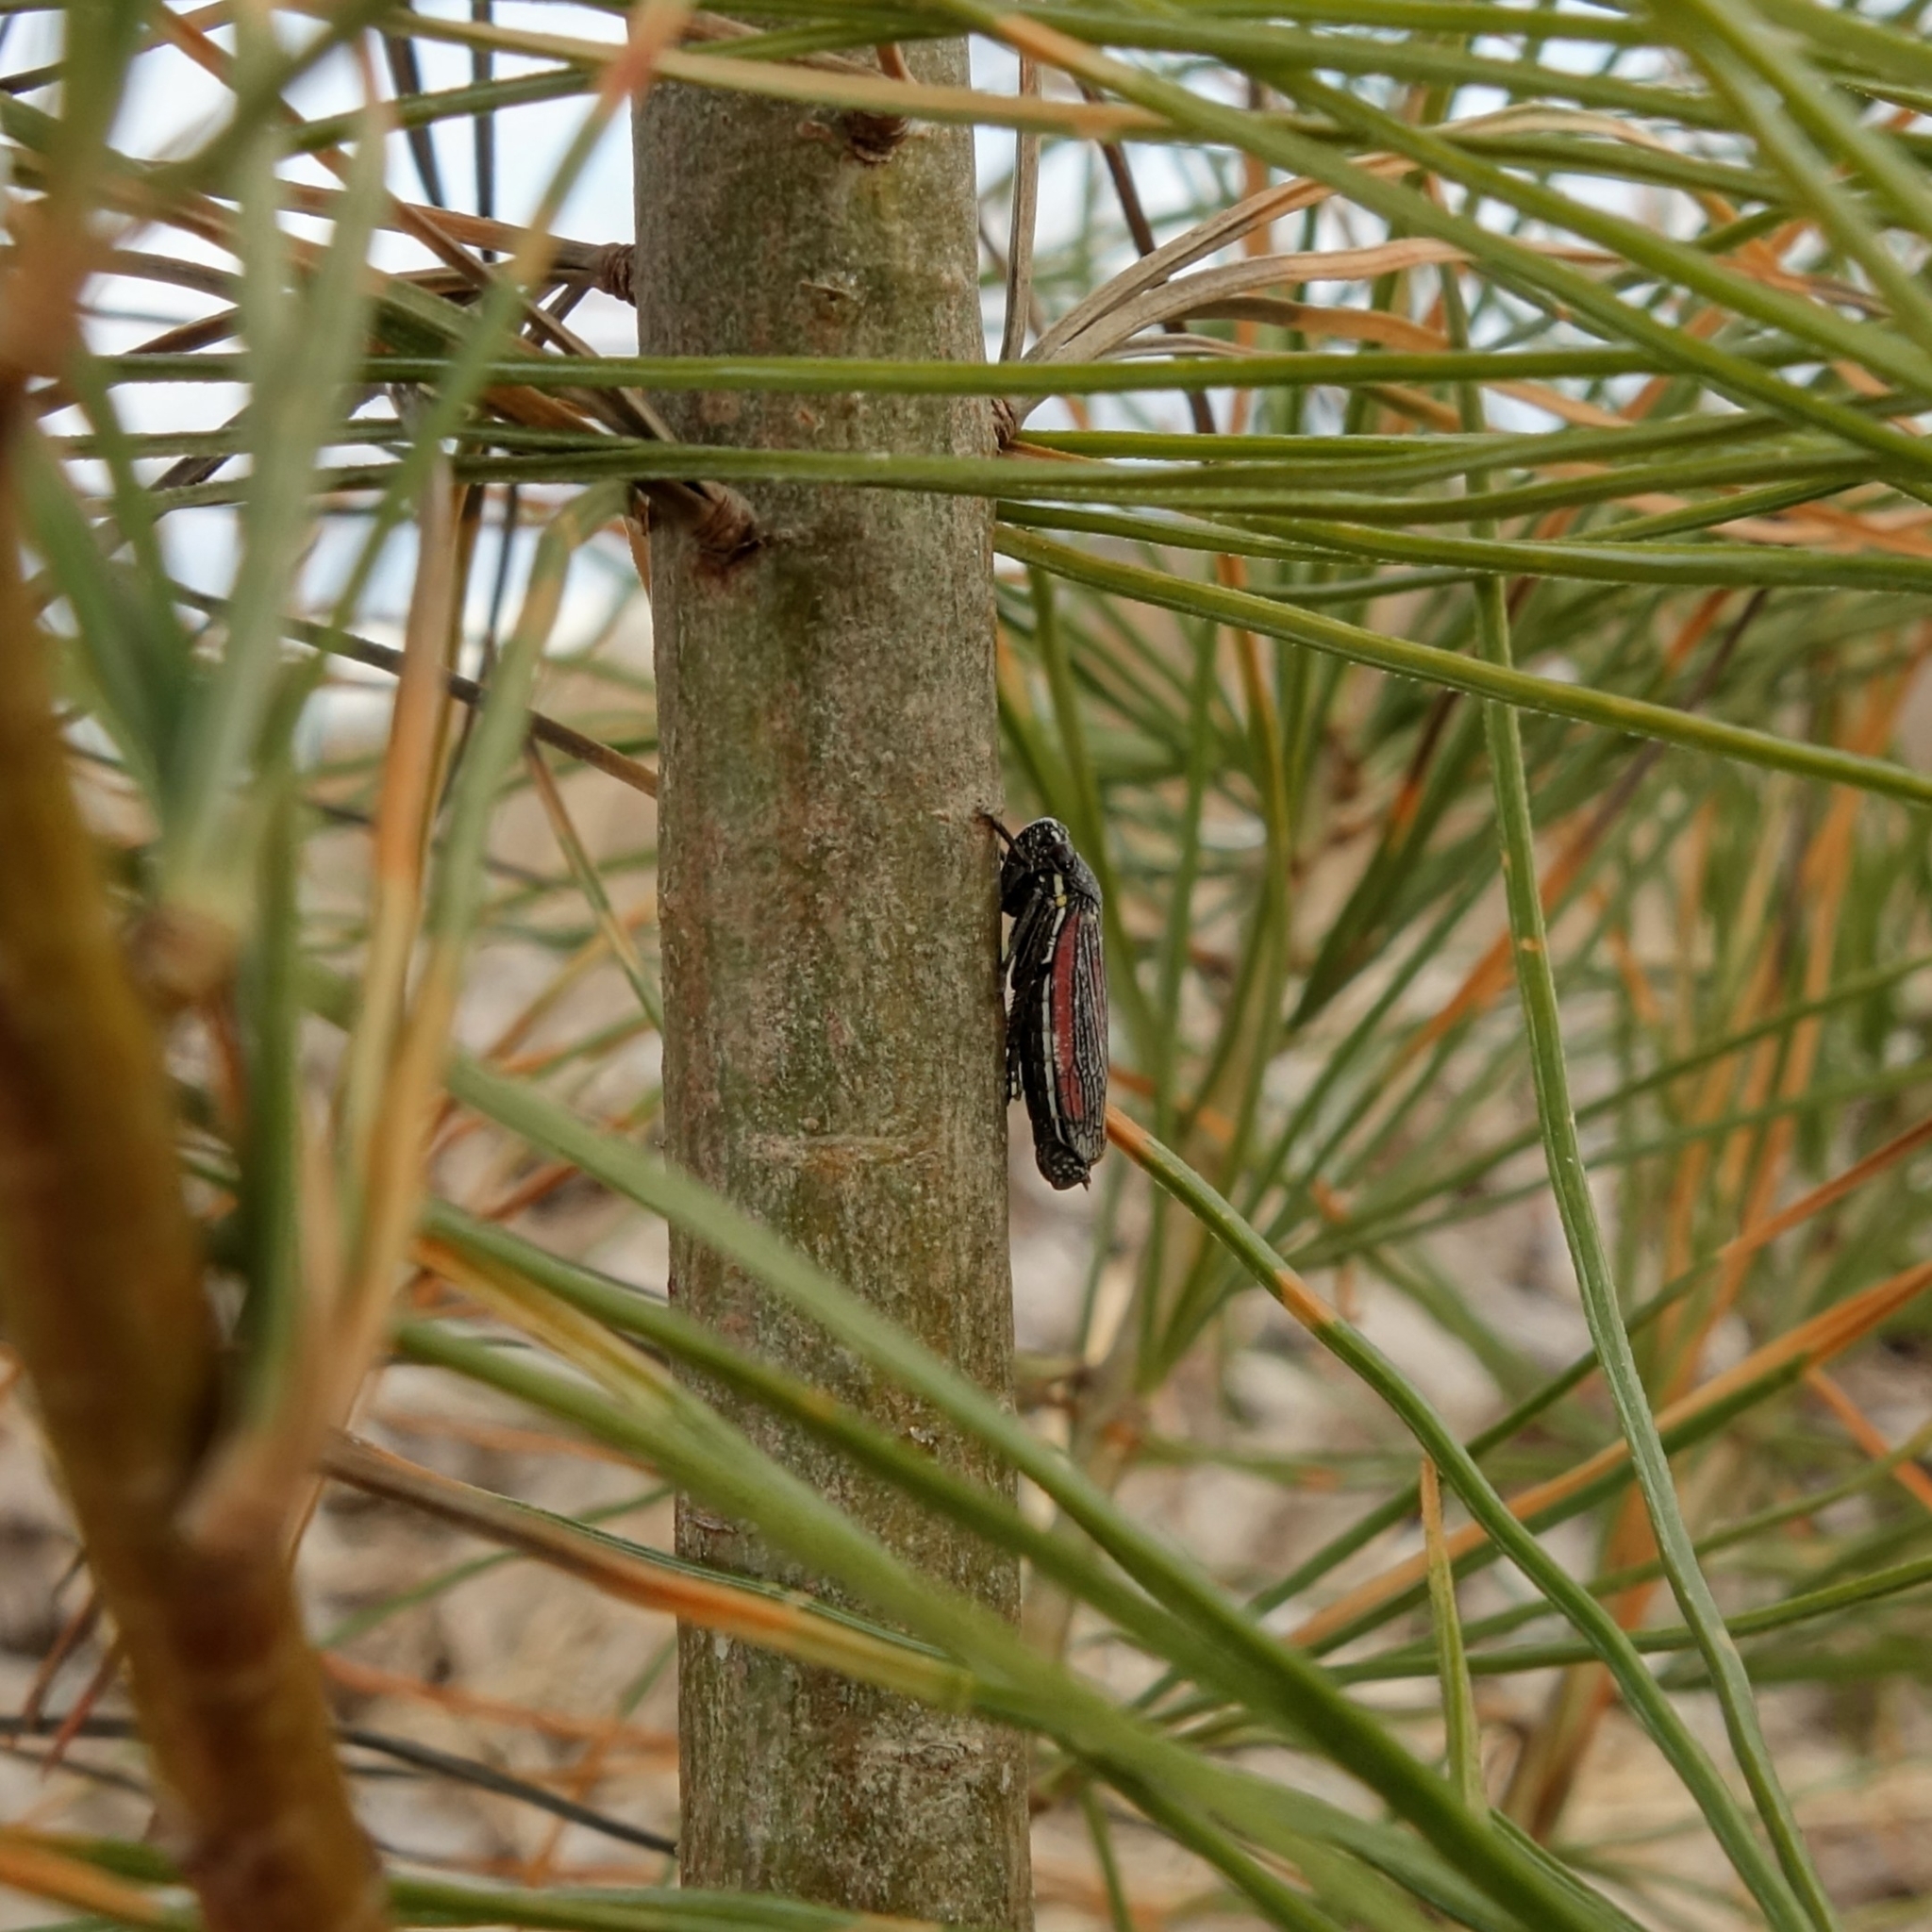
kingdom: Animalia
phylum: Arthropoda
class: Insecta
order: Hemiptera
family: Cicadellidae
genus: Cuerna
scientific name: Cuerna striata
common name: Striped leafhopper
